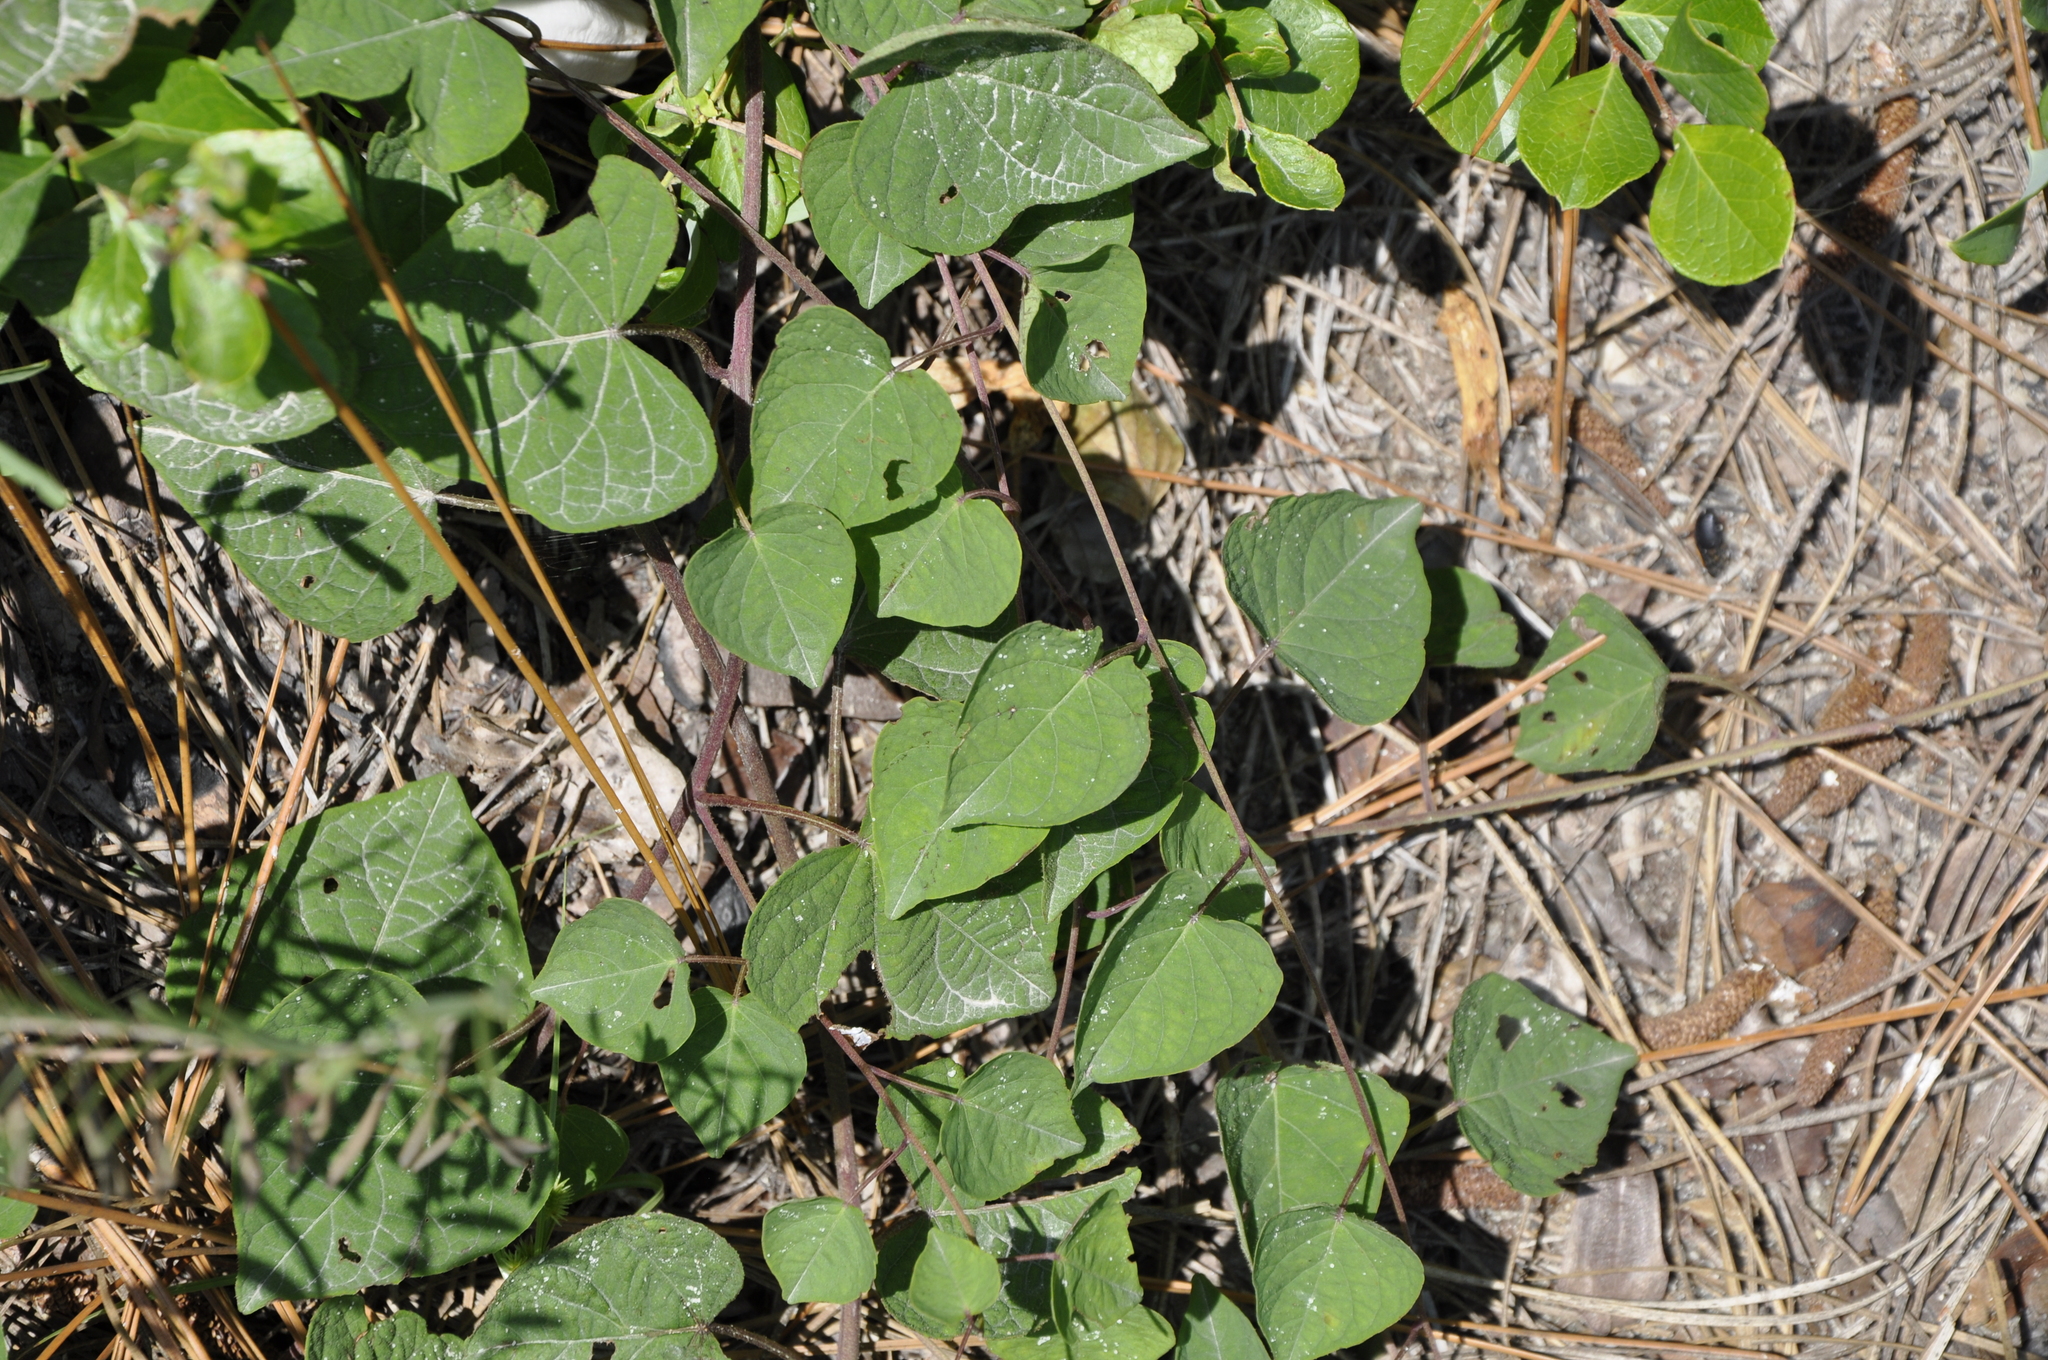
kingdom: Plantae
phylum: Tracheophyta
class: Magnoliopsida
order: Solanales
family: Convolvulaceae
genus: Ipomoea
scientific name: Ipomoea pandurata
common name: Man-of-the-earth
